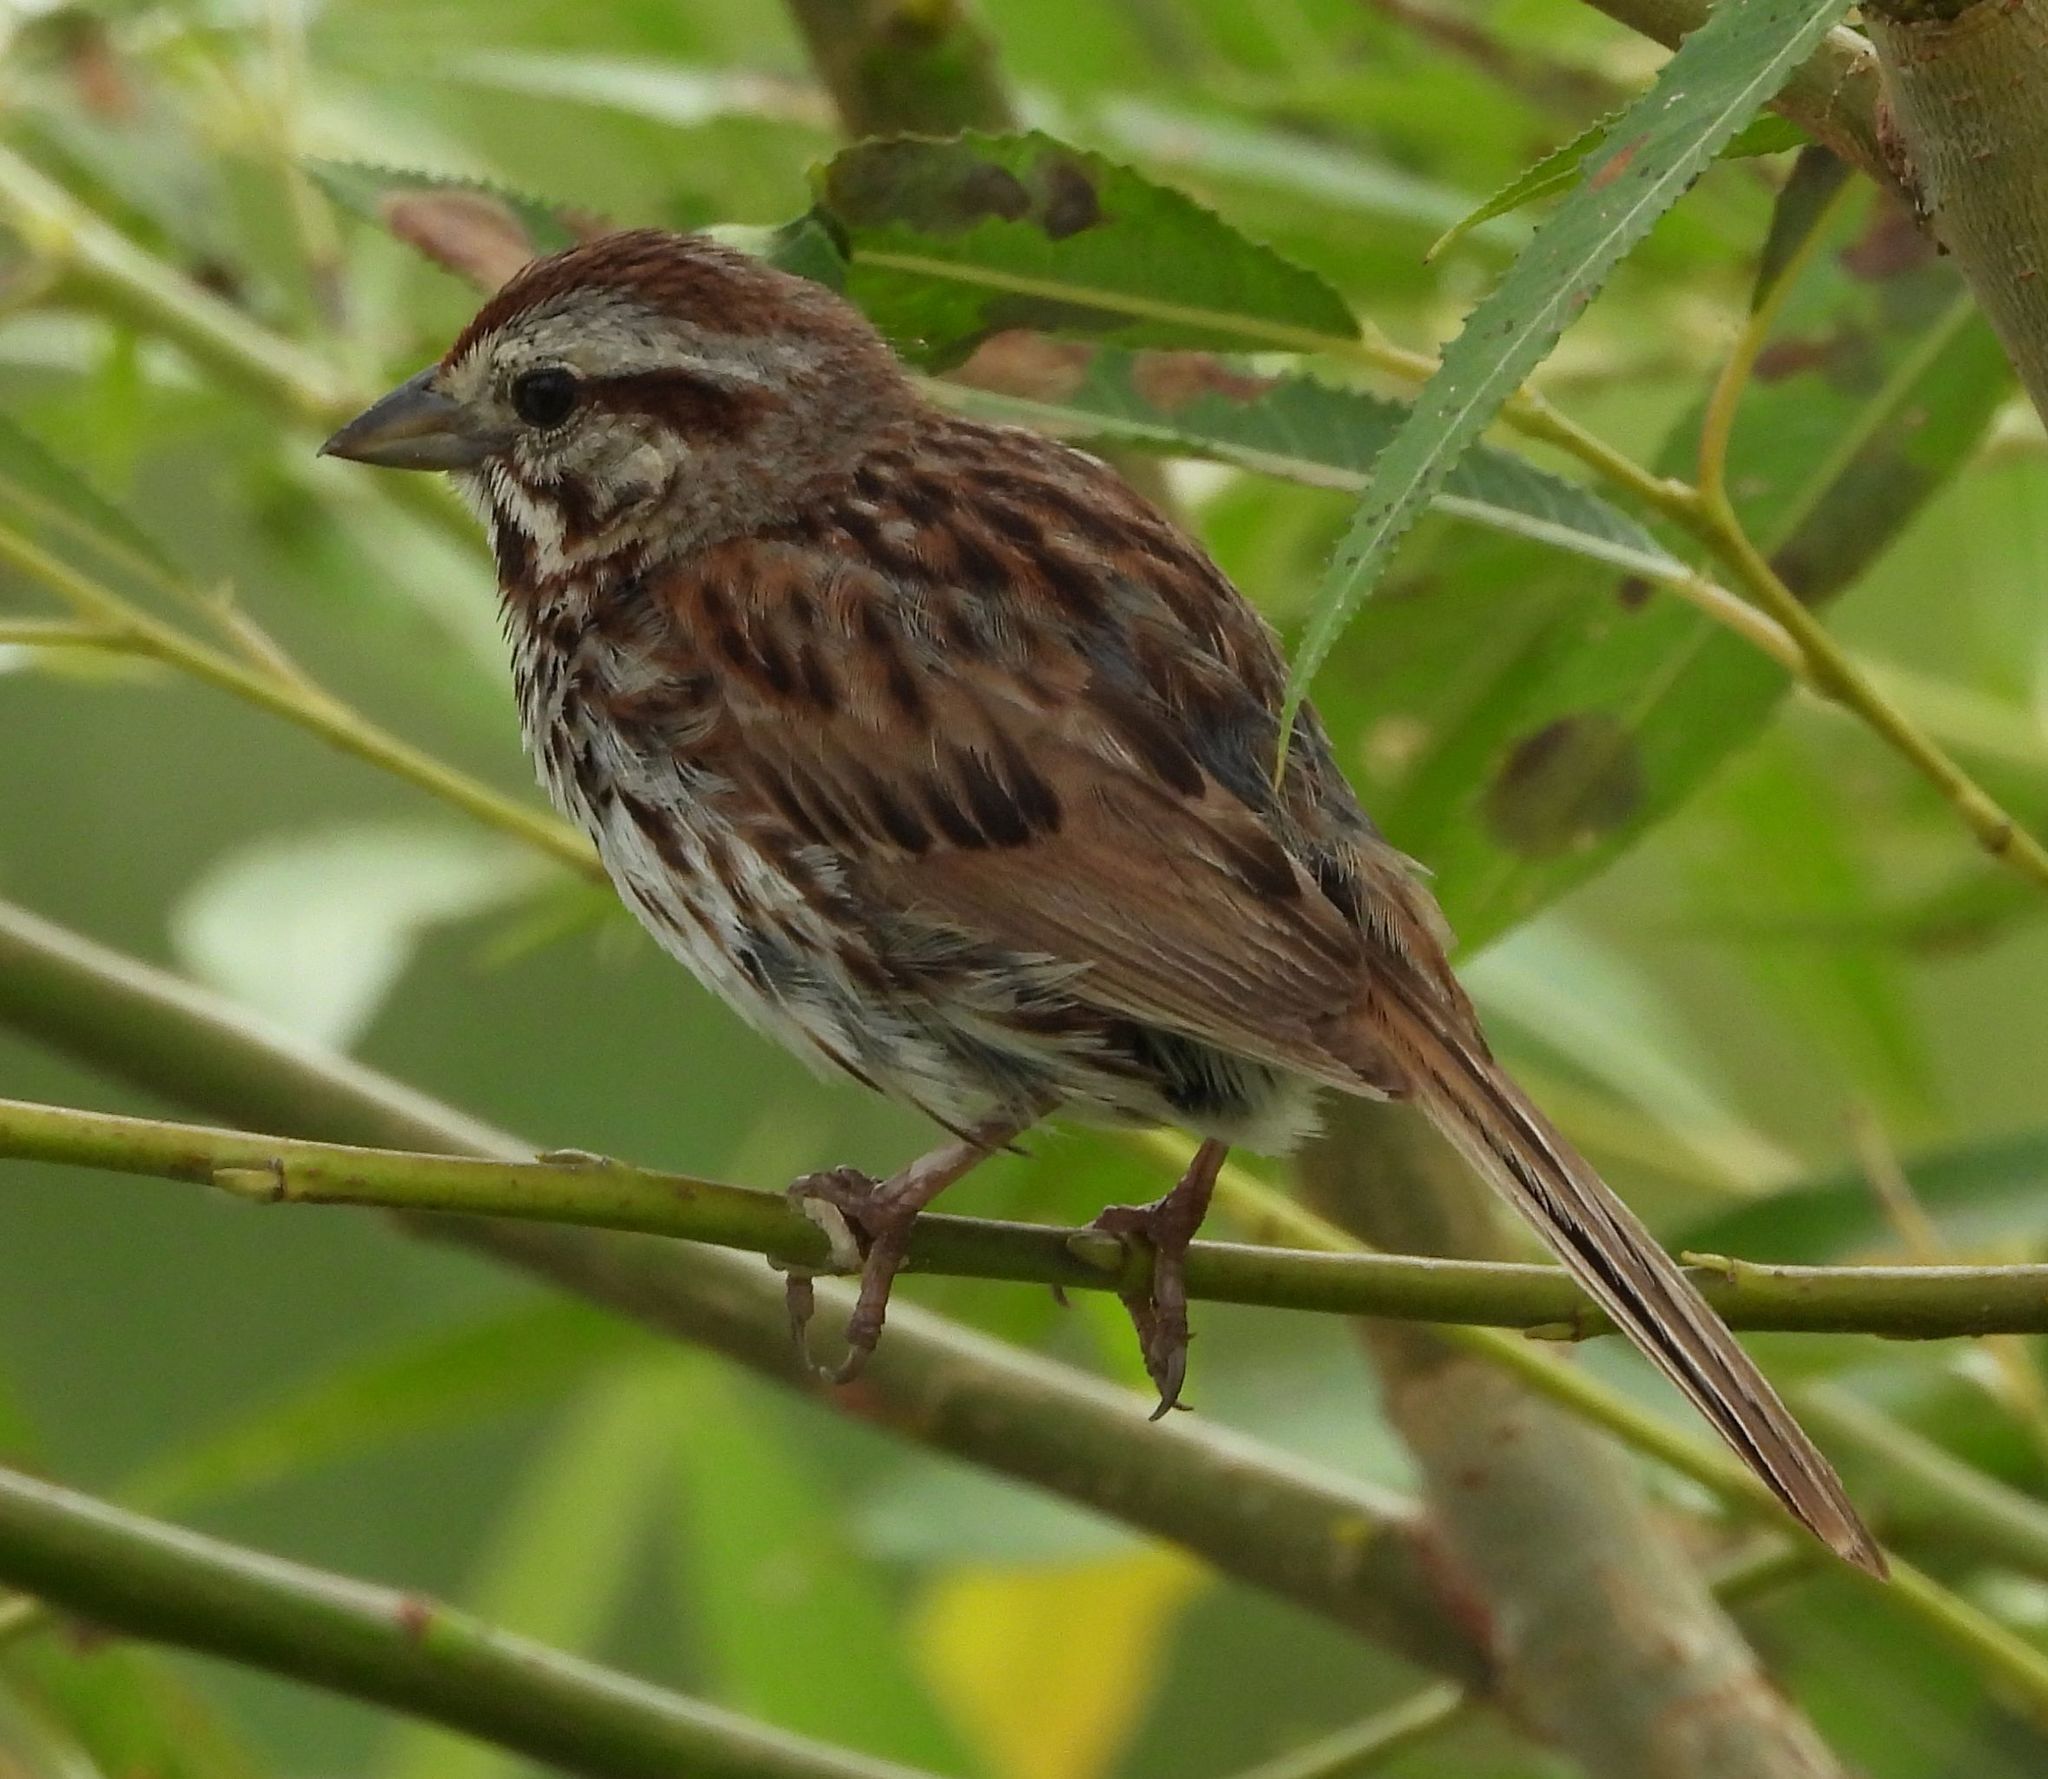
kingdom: Animalia
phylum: Chordata
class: Aves
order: Passeriformes
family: Passerellidae
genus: Melospiza
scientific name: Melospiza melodia
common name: Song sparrow
